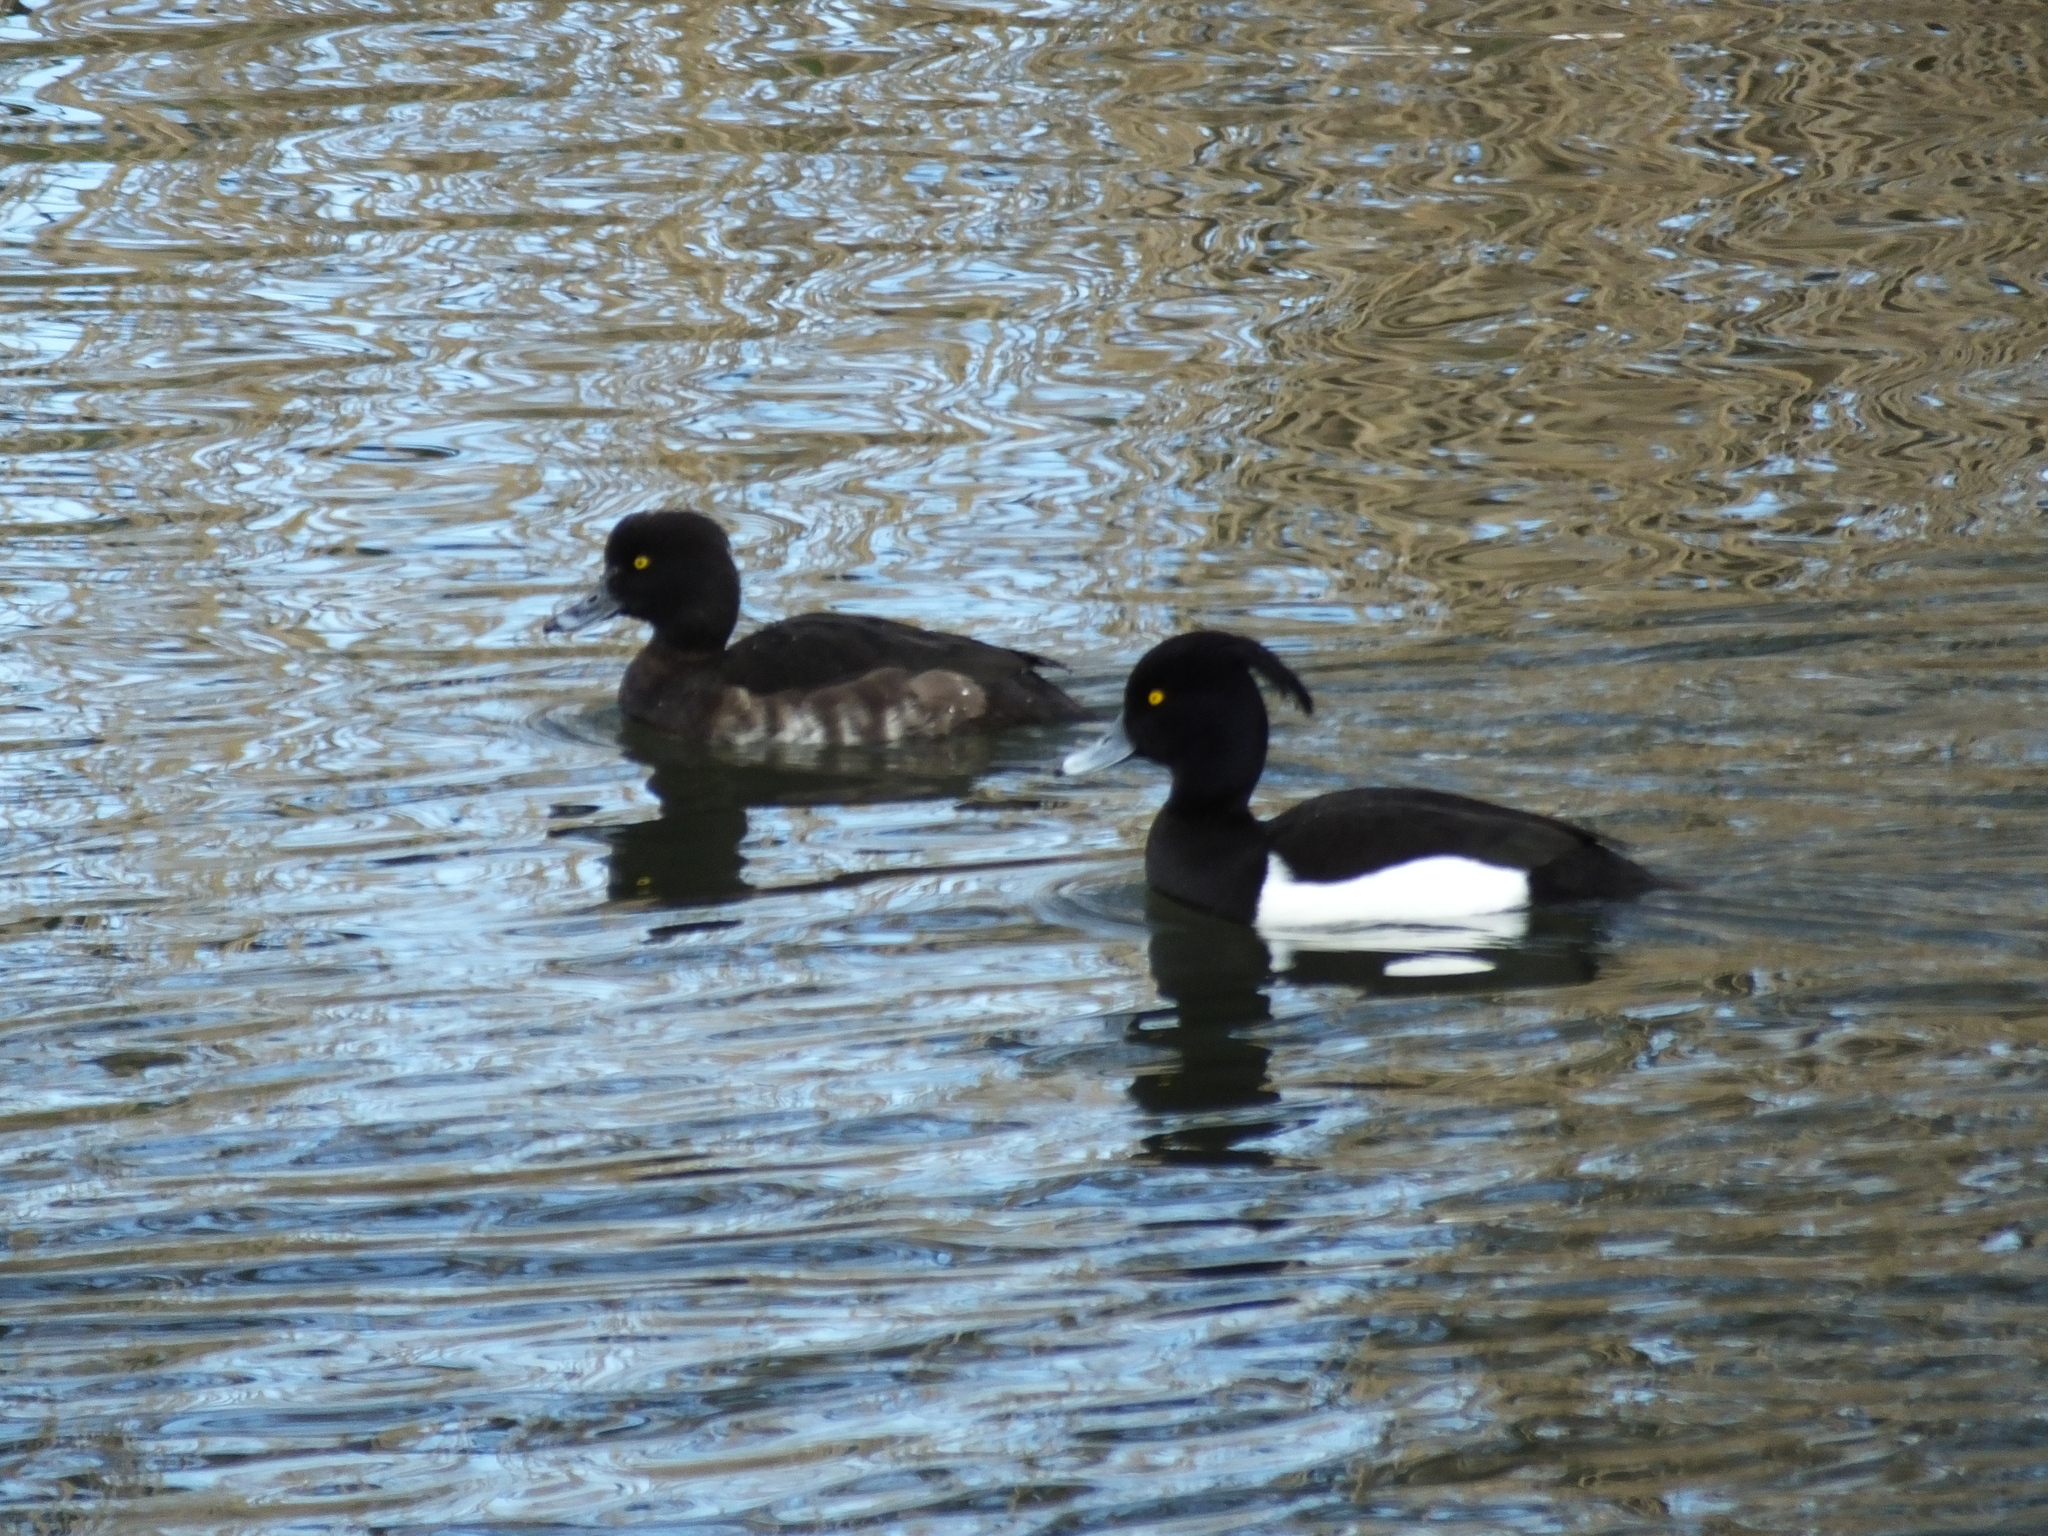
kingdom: Animalia
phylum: Chordata
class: Aves
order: Anseriformes
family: Anatidae
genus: Aythya
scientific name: Aythya fuligula
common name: Tufted duck
